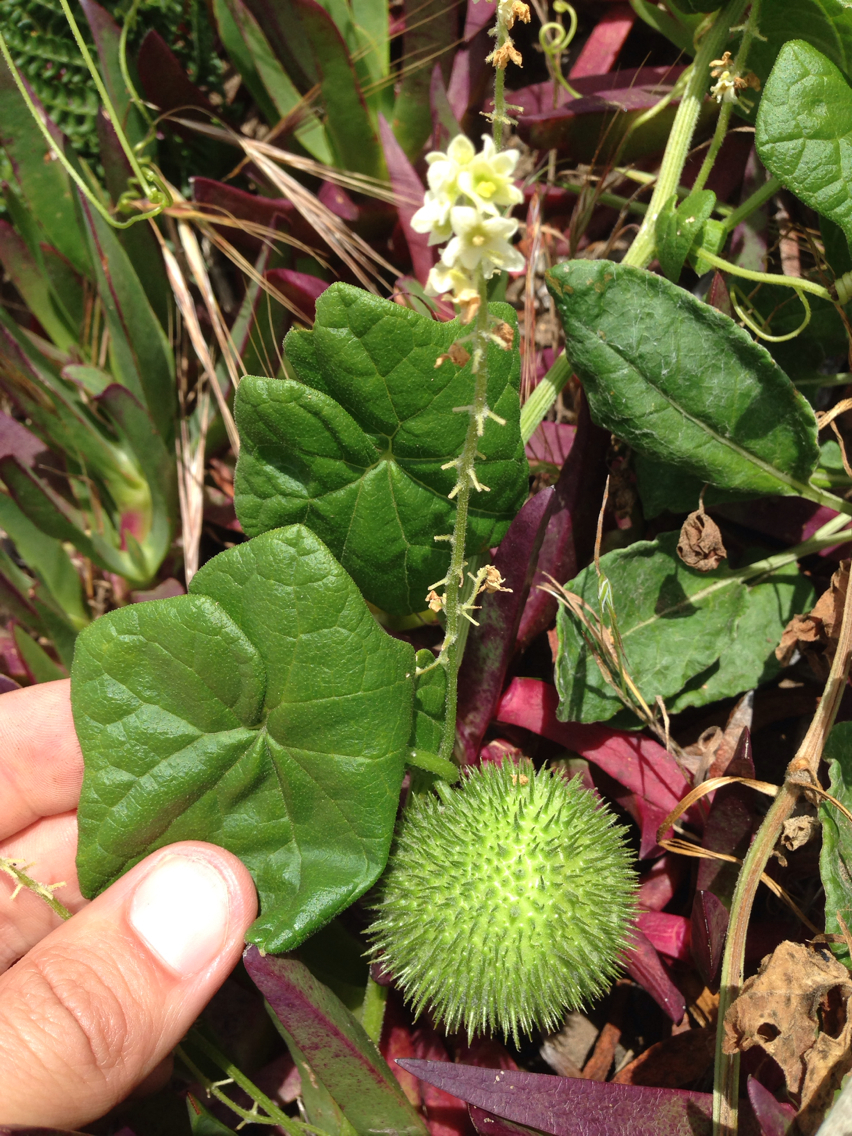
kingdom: Plantae
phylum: Tracheophyta
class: Magnoliopsida
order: Cucurbitales
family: Cucurbitaceae
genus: Marah
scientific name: Marah fabacea
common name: California manroot
